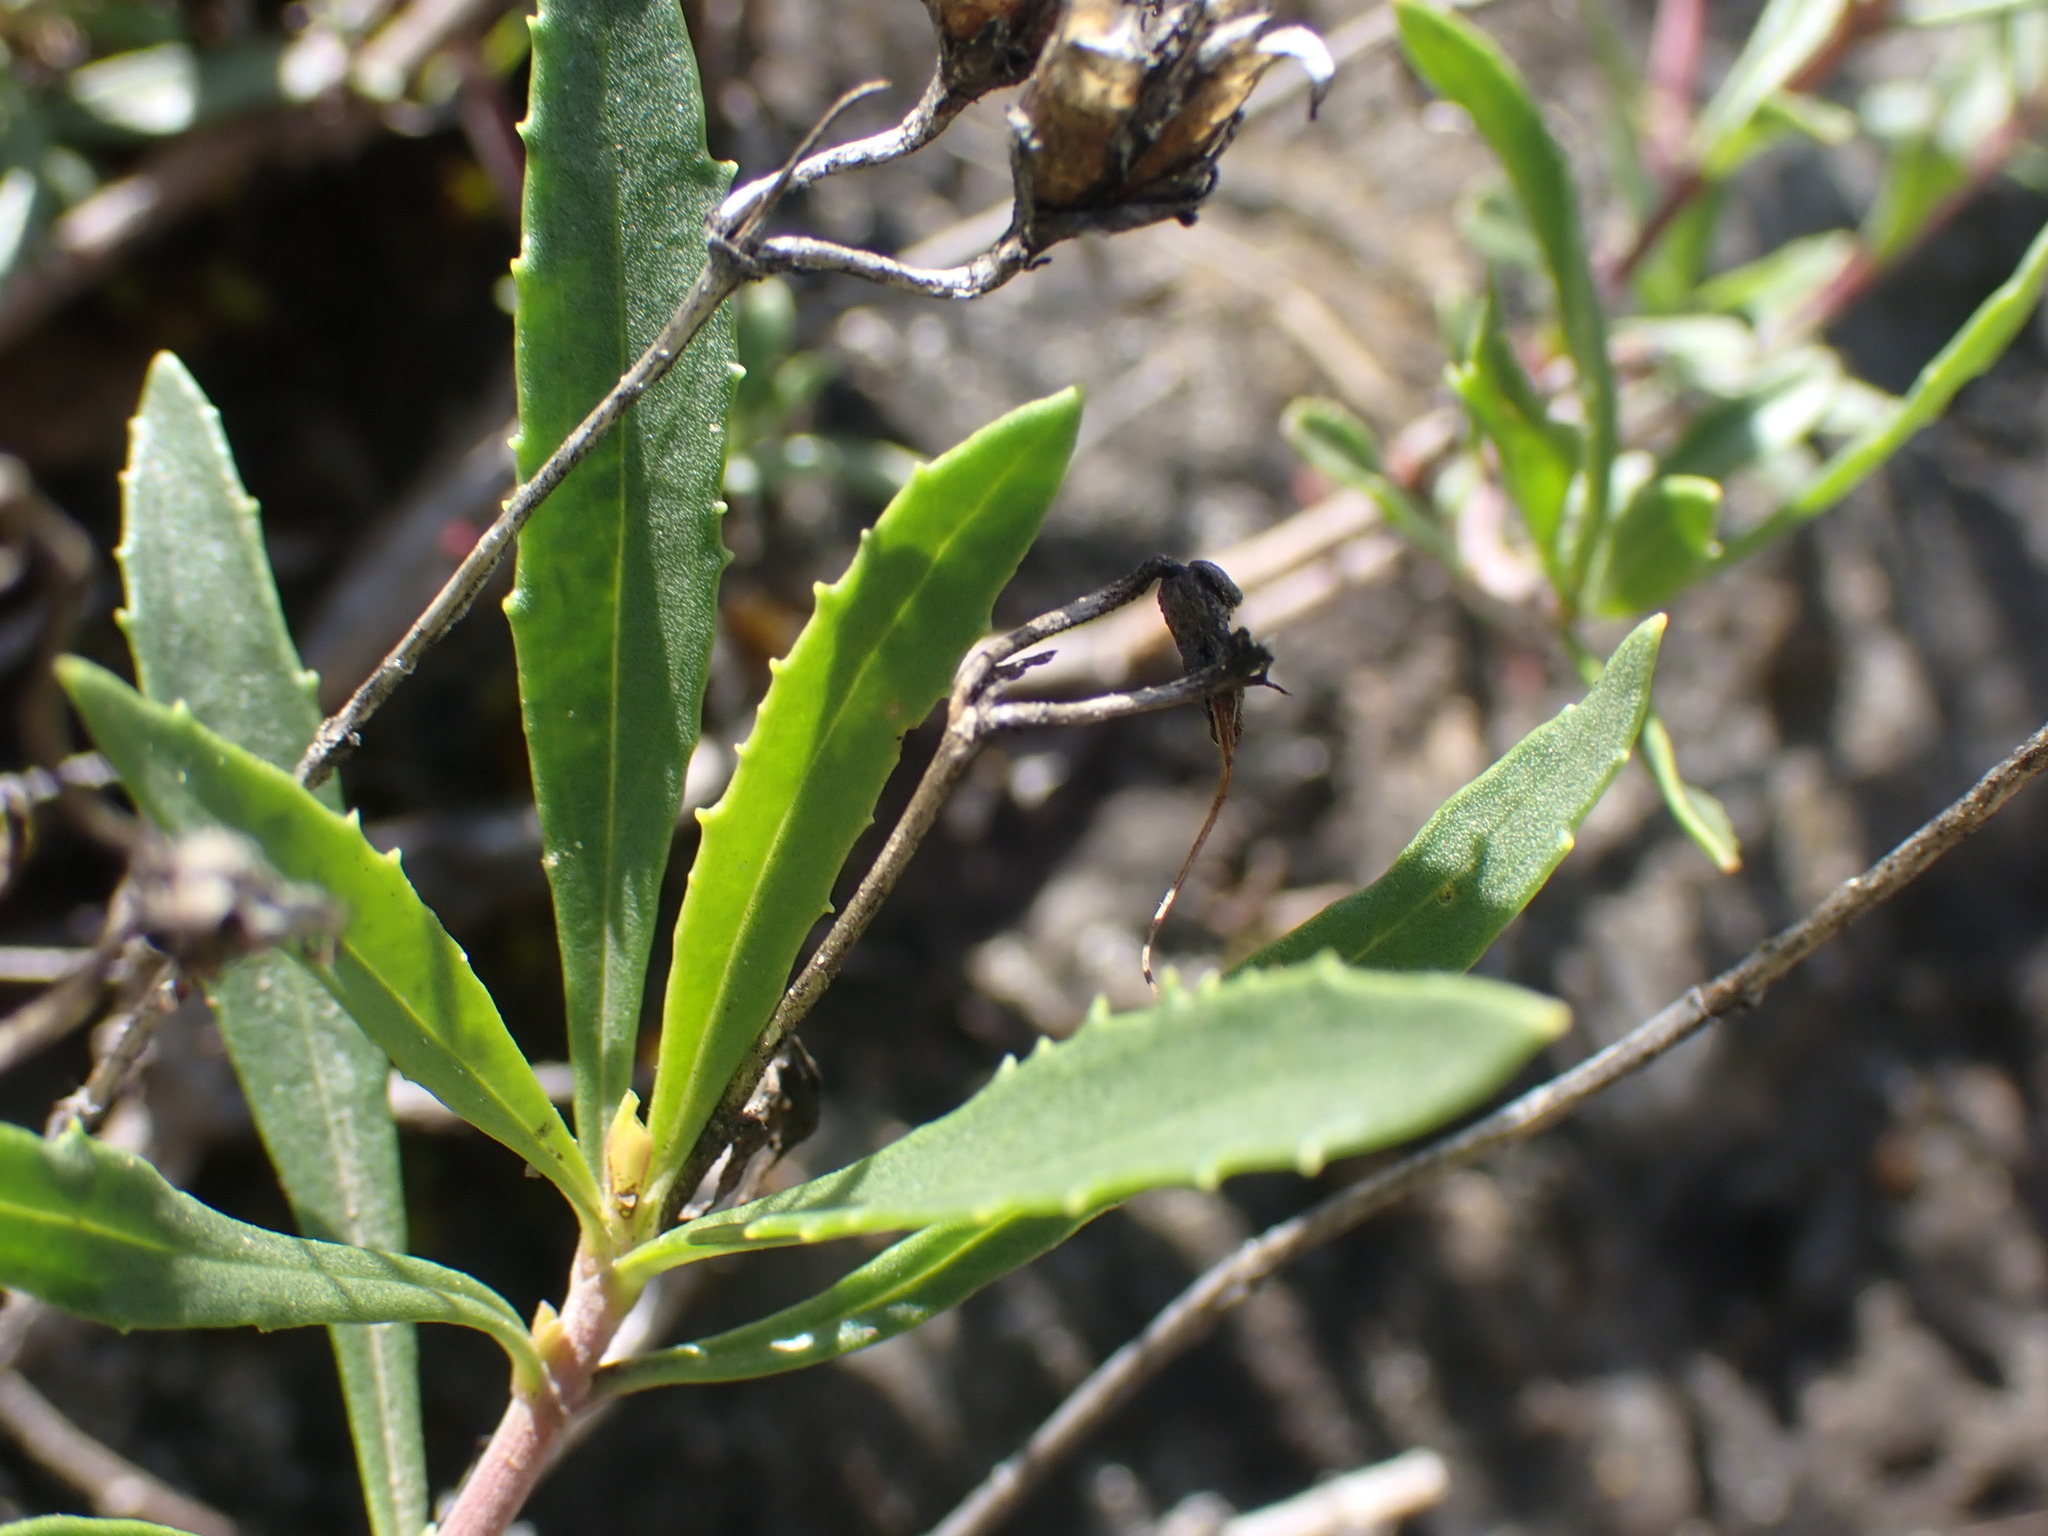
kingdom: Plantae
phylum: Tracheophyta
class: Magnoliopsida
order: Lamiales
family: Plantaginaceae
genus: Penstemon
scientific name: Penstemon fruticosus
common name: Bush penstemon
